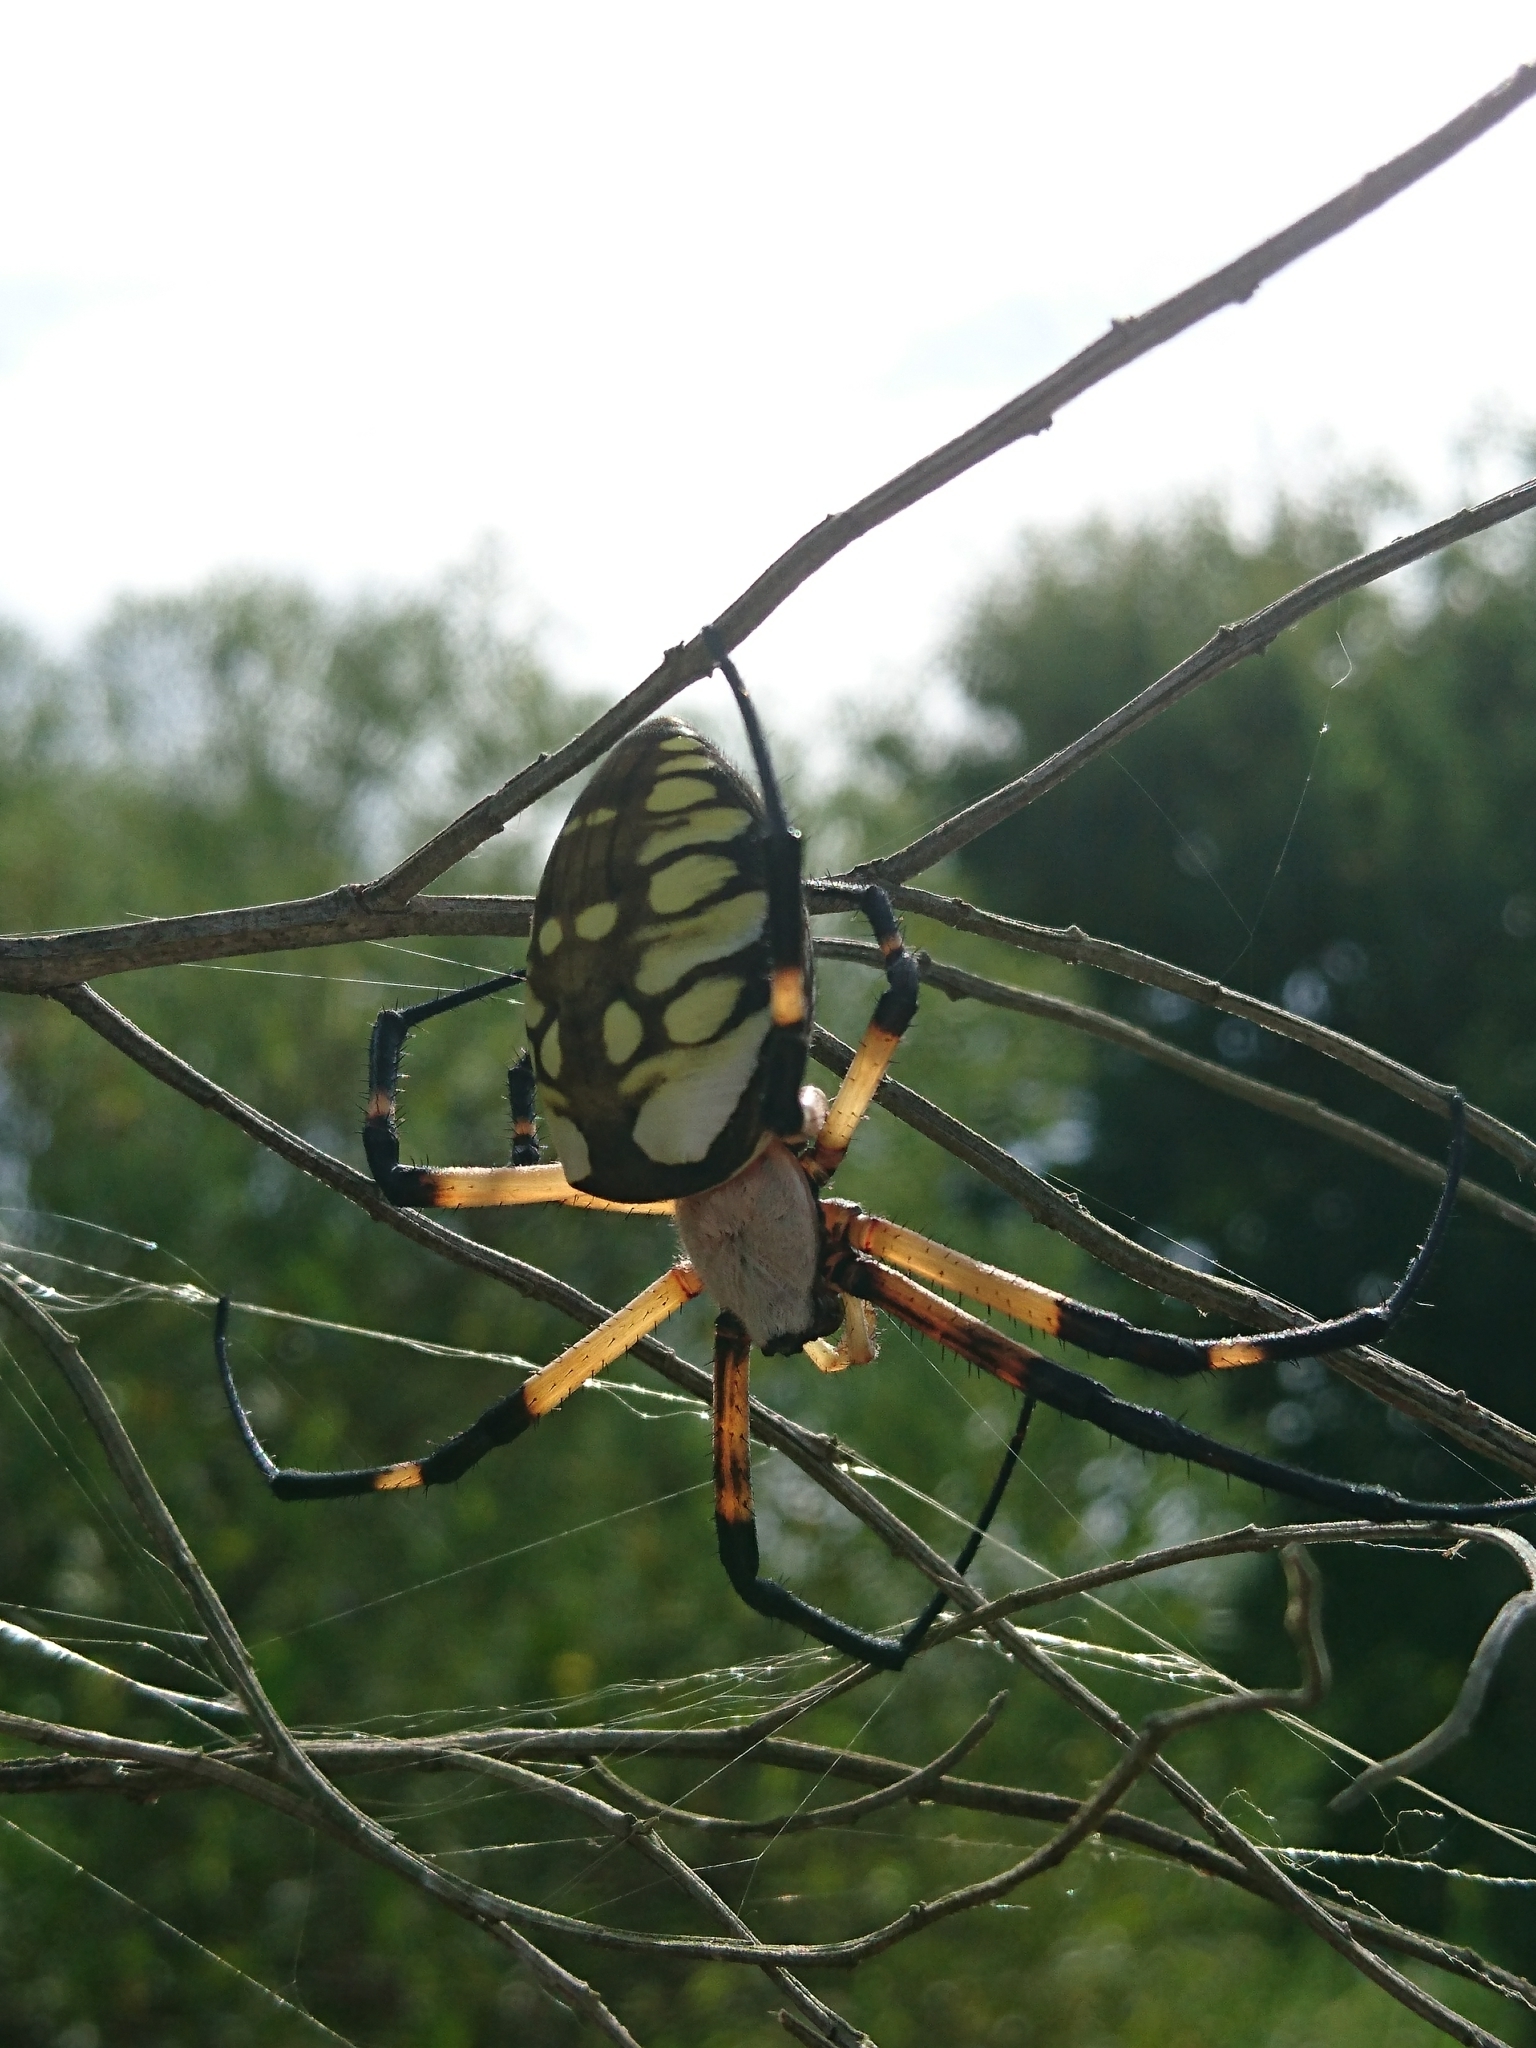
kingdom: Animalia
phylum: Arthropoda
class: Arachnida
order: Araneae
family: Araneidae
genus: Argiope
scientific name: Argiope aurantia
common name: Orb weavers
